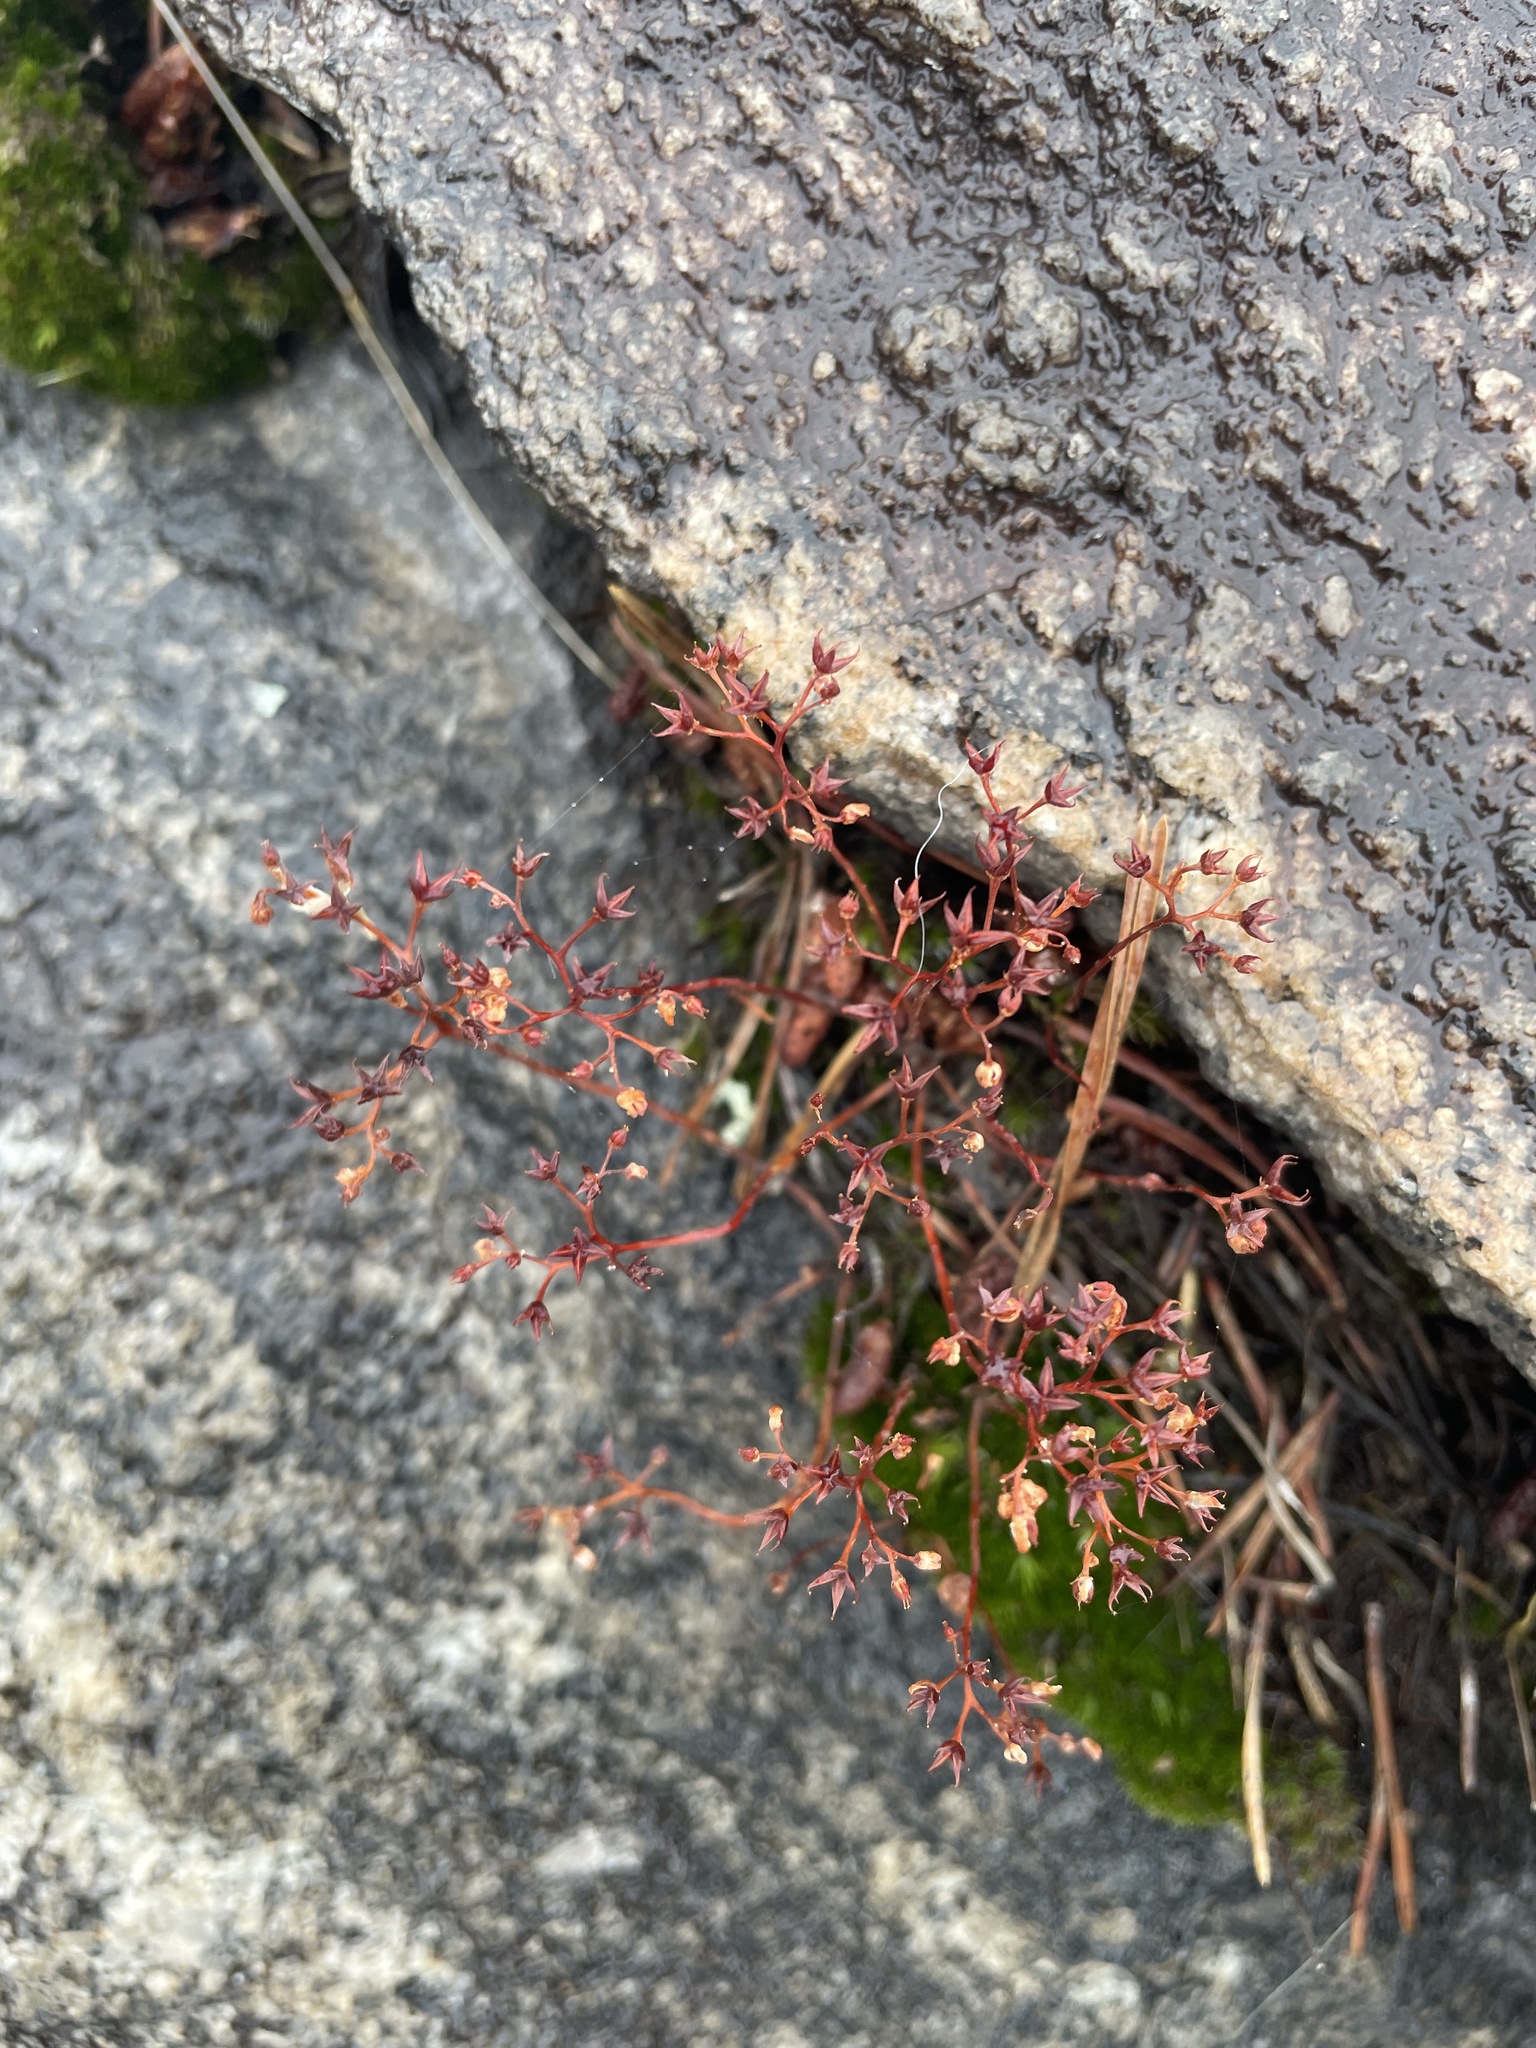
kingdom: Plantae
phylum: Tracheophyta
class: Magnoliopsida
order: Saxifragales
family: Crassulaceae
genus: Sedum
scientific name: Sedum smallii
